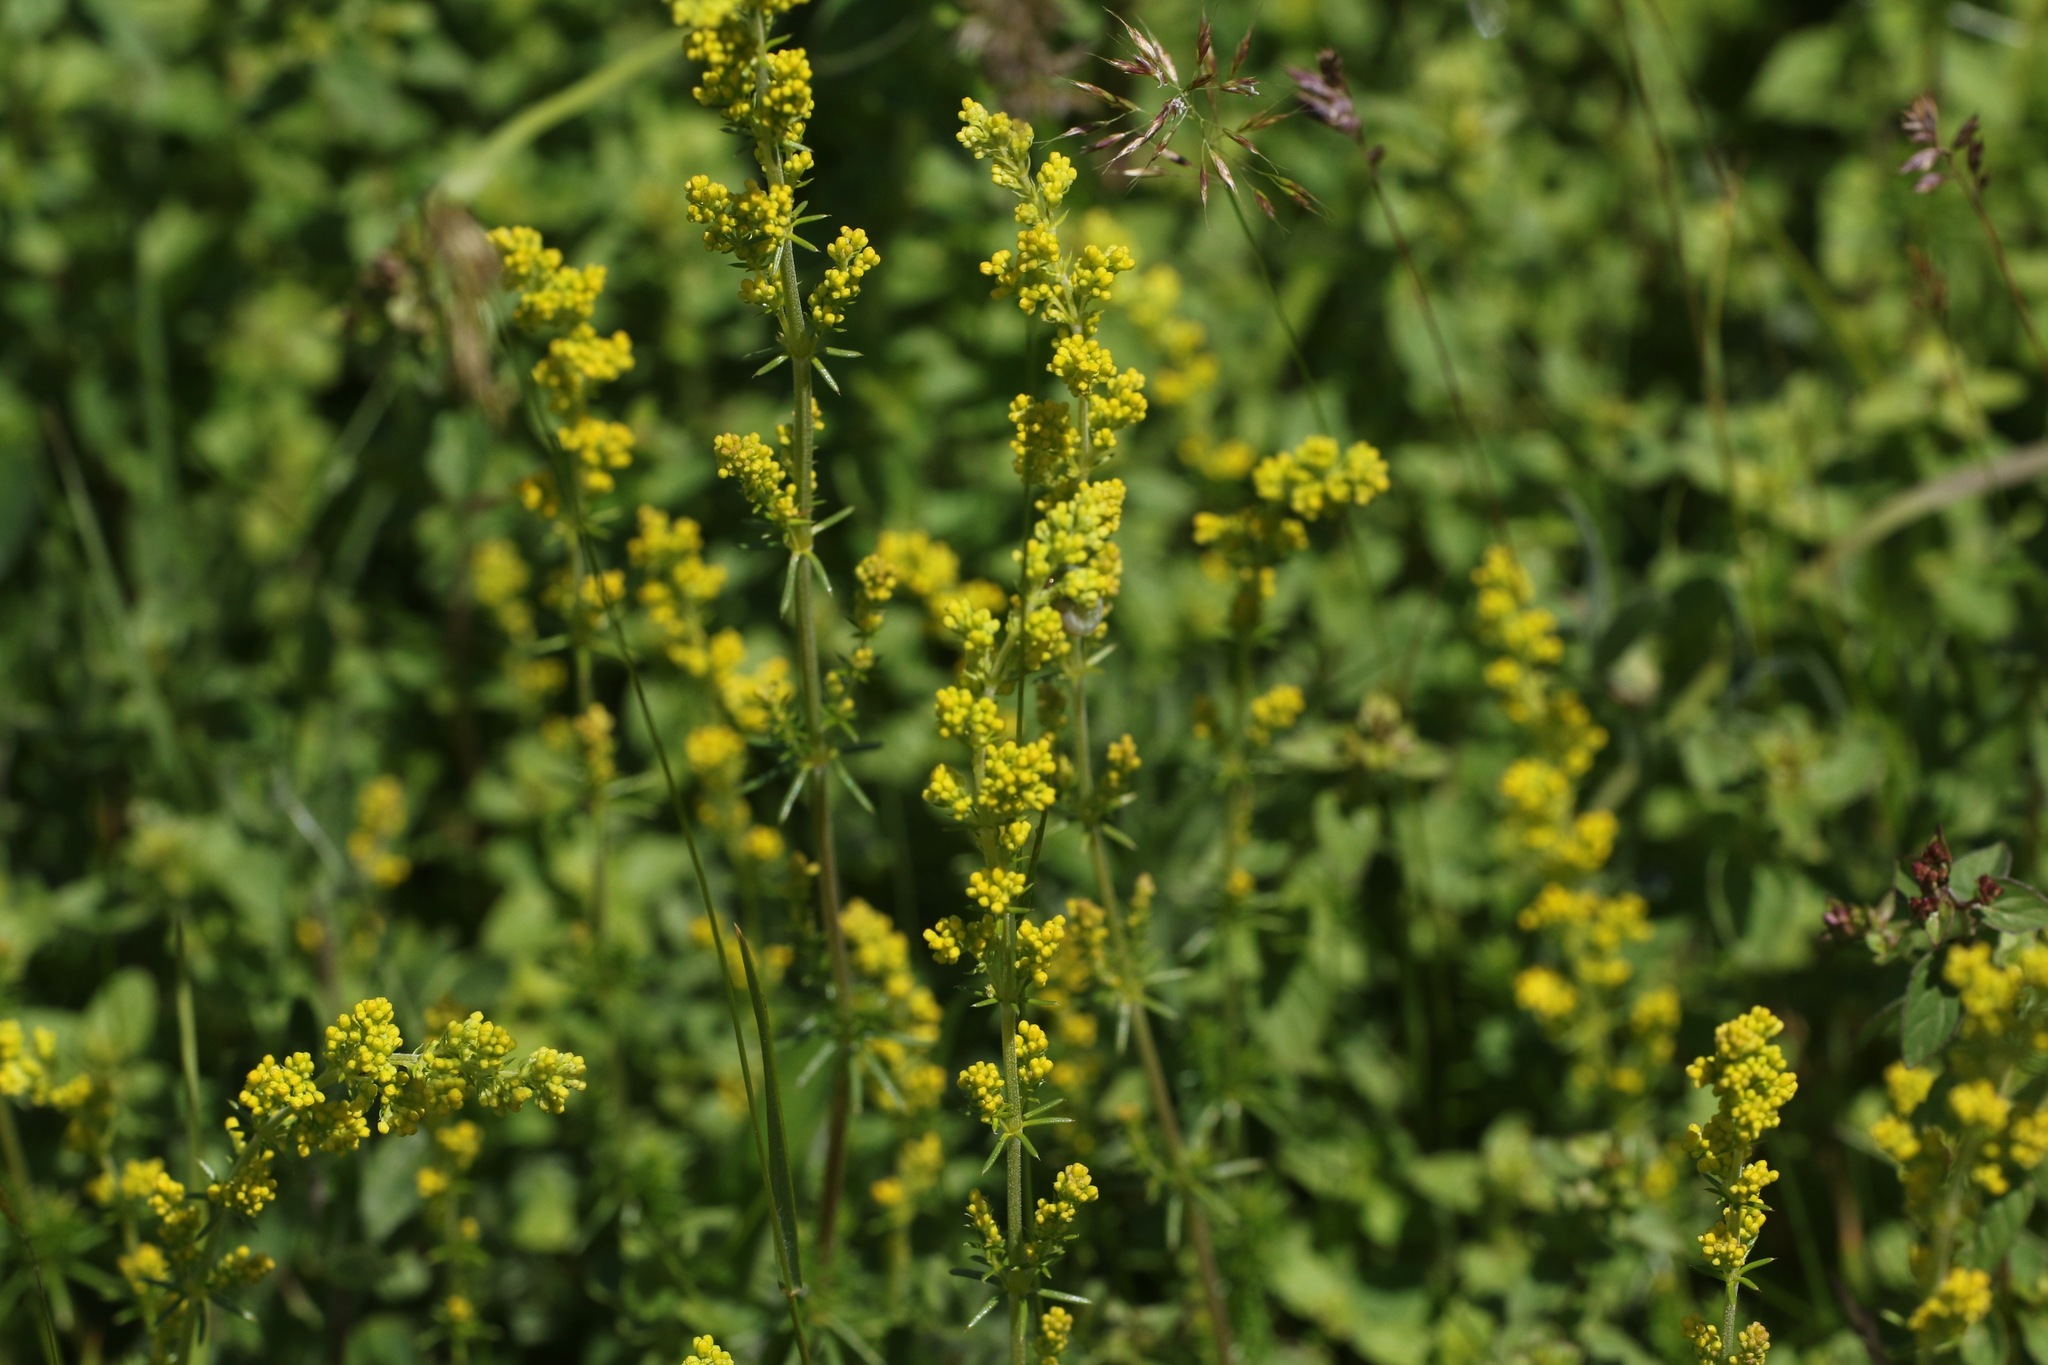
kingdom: Plantae
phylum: Tracheophyta
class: Magnoliopsida
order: Gentianales
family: Rubiaceae
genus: Galium
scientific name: Galium verum
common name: Lady's bedstraw
